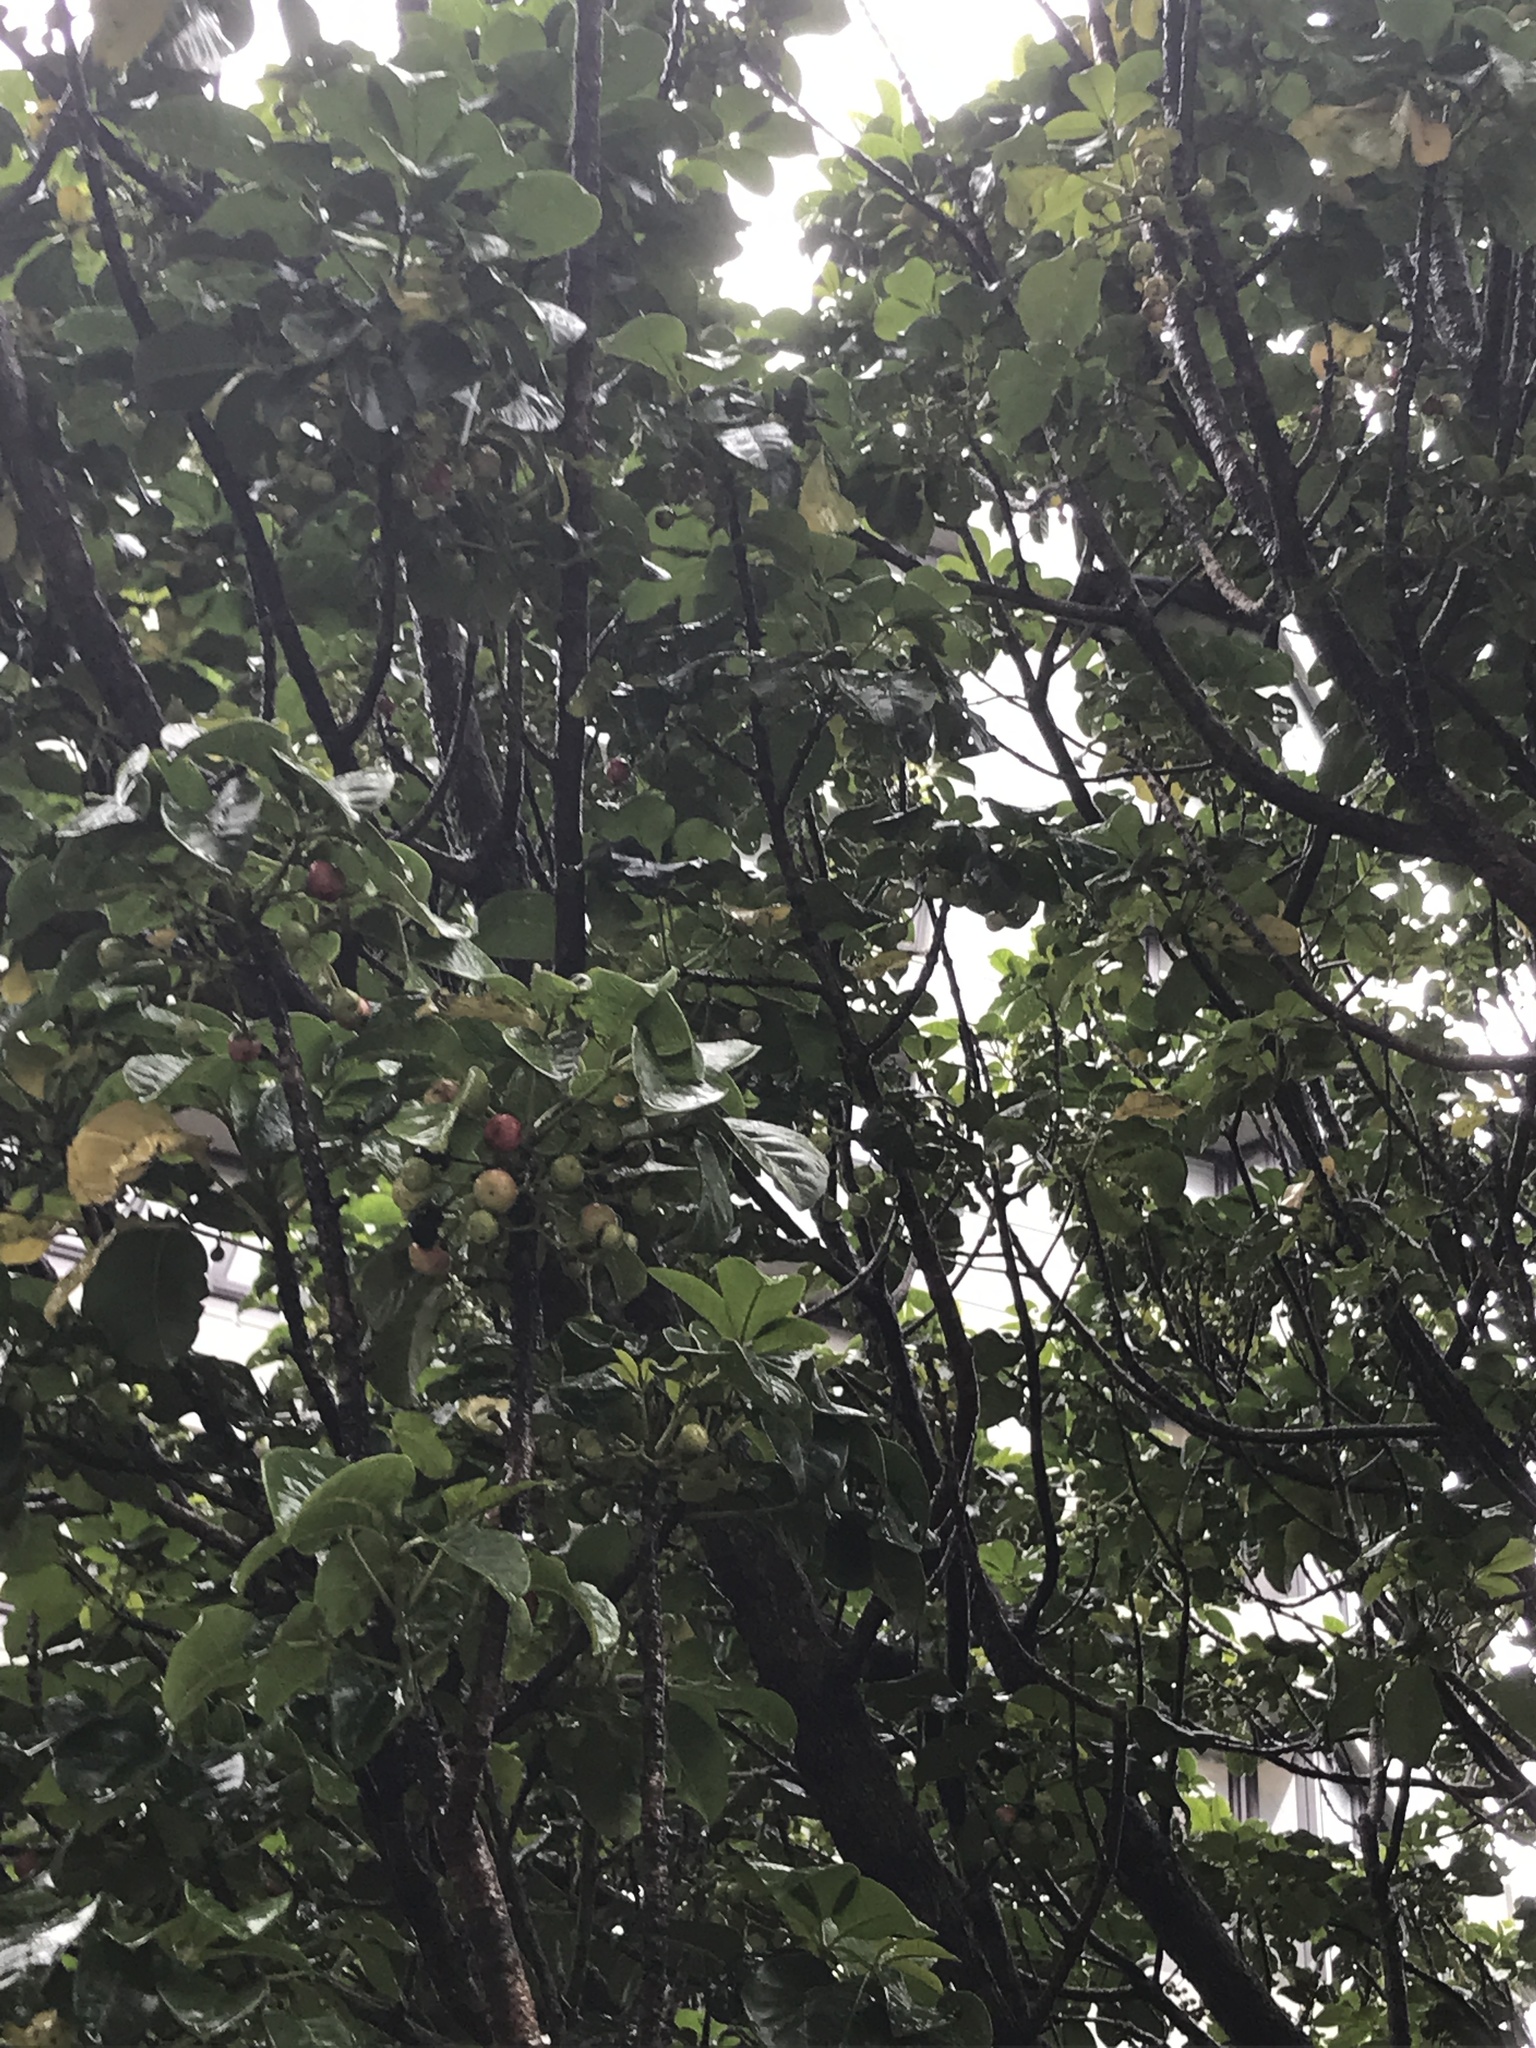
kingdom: Animalia
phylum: Chordata
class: Aves
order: Columbiformes
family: Columbidae
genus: Hemiphaga
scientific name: Hemiphaga novaeseelandiae
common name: New zealand pigeon
